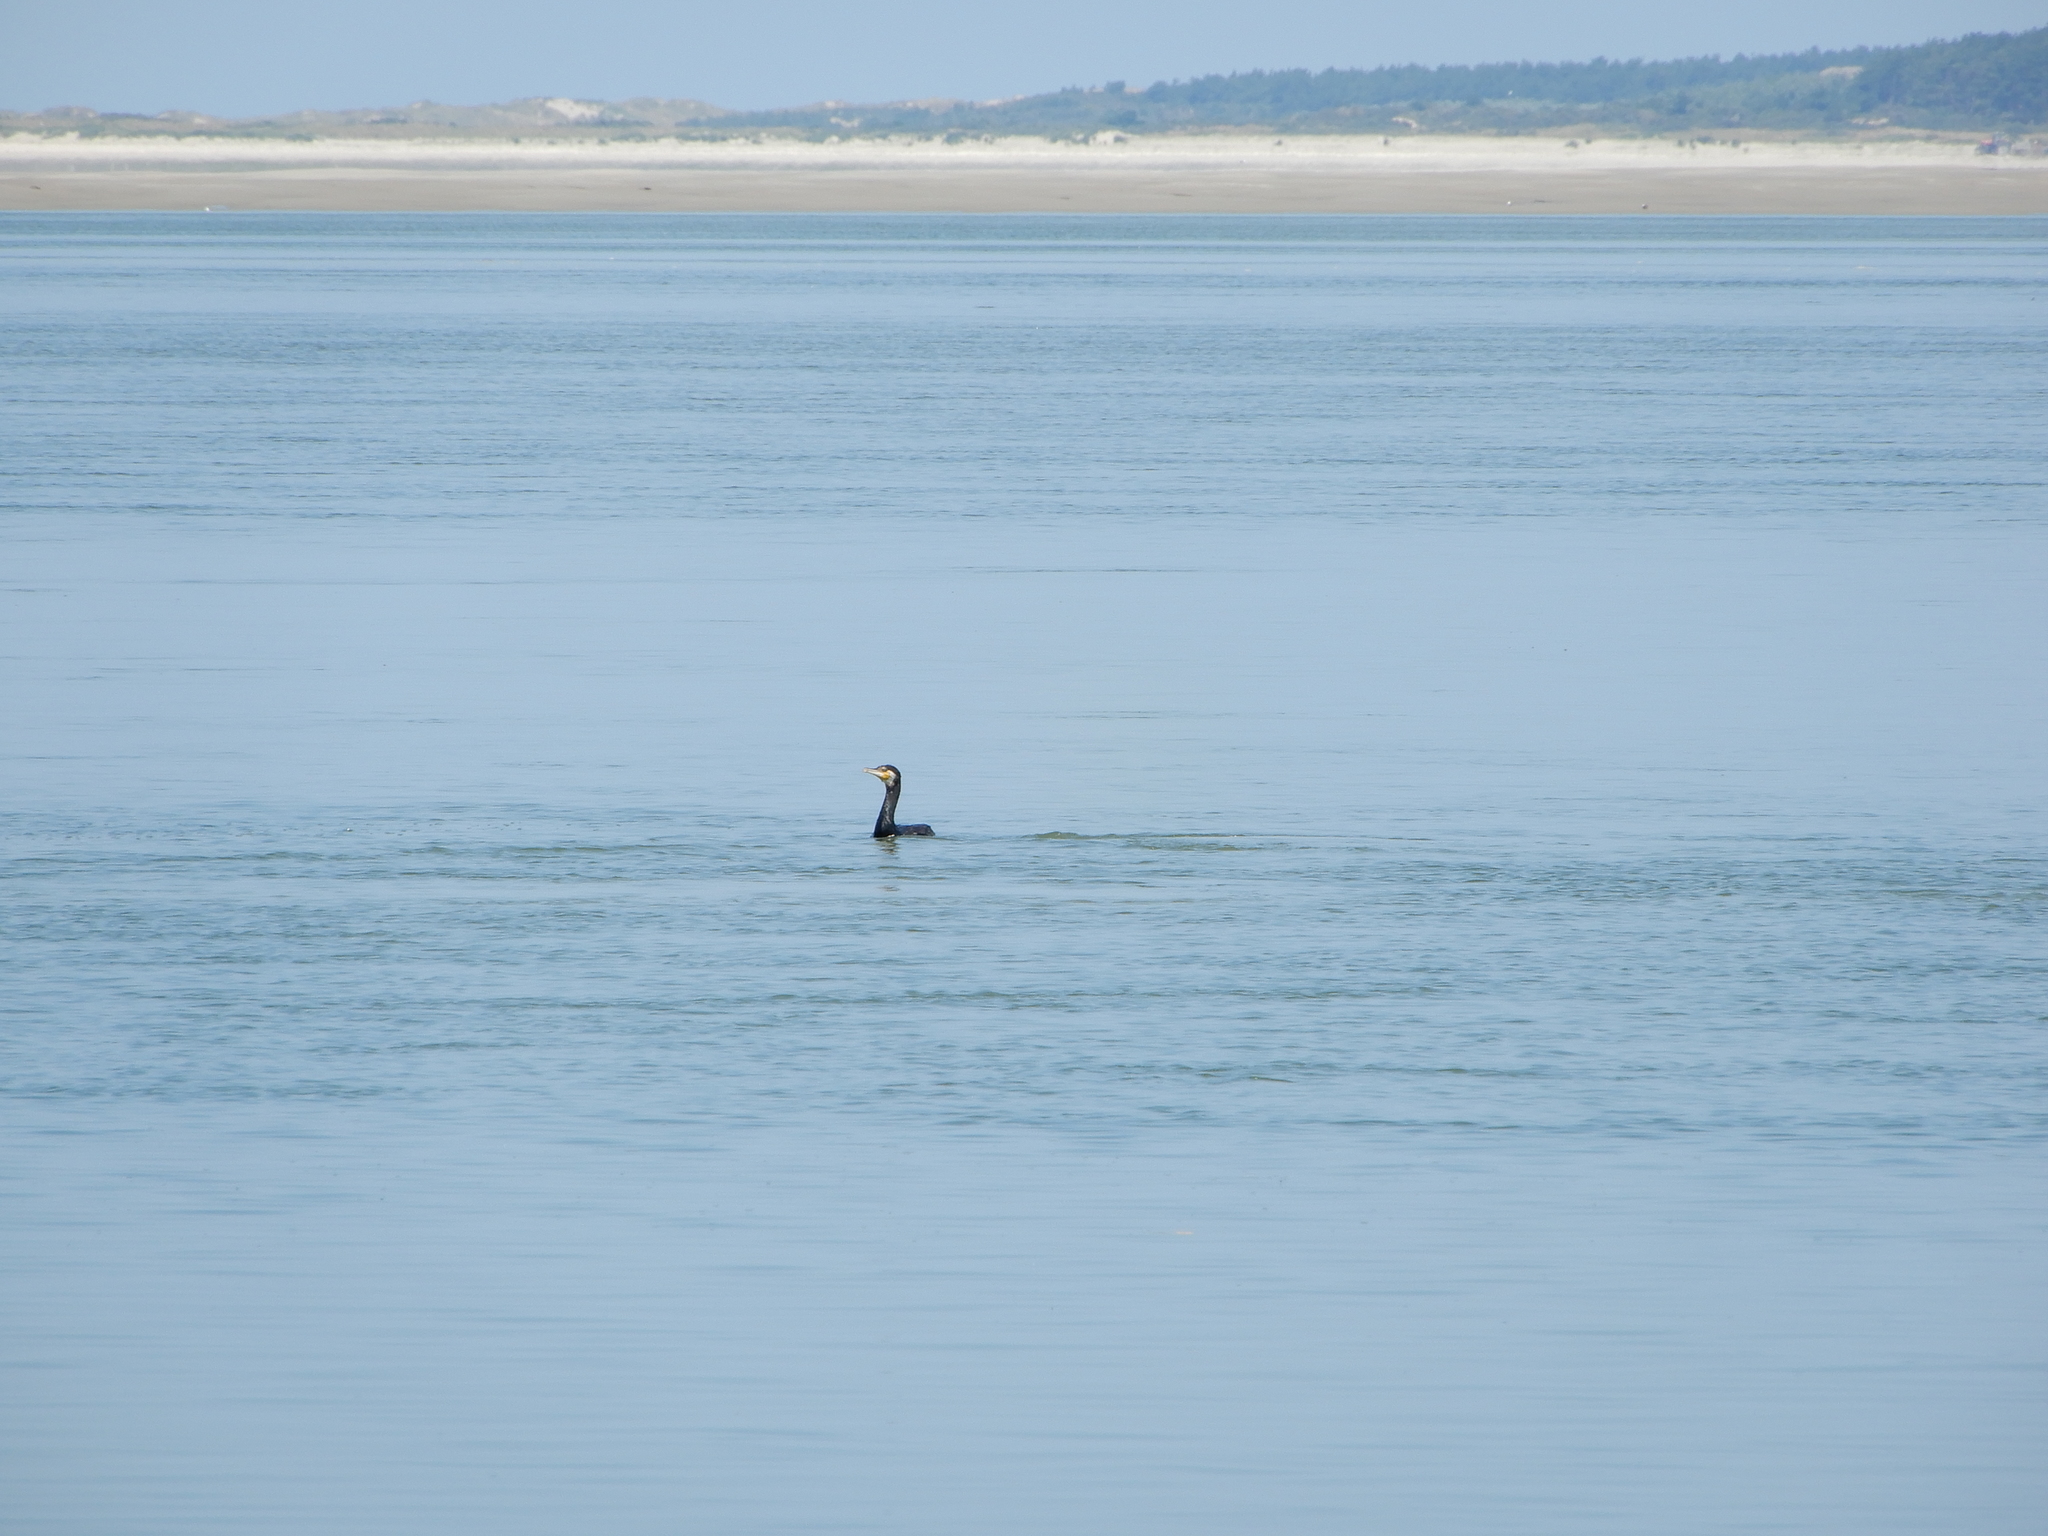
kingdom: Animalia
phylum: Chordata
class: Aves
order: Suliformes
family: Phalacrocoracidae
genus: Phalacrocorax
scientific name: Phalacrocorax carbo
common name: Great cormorant
